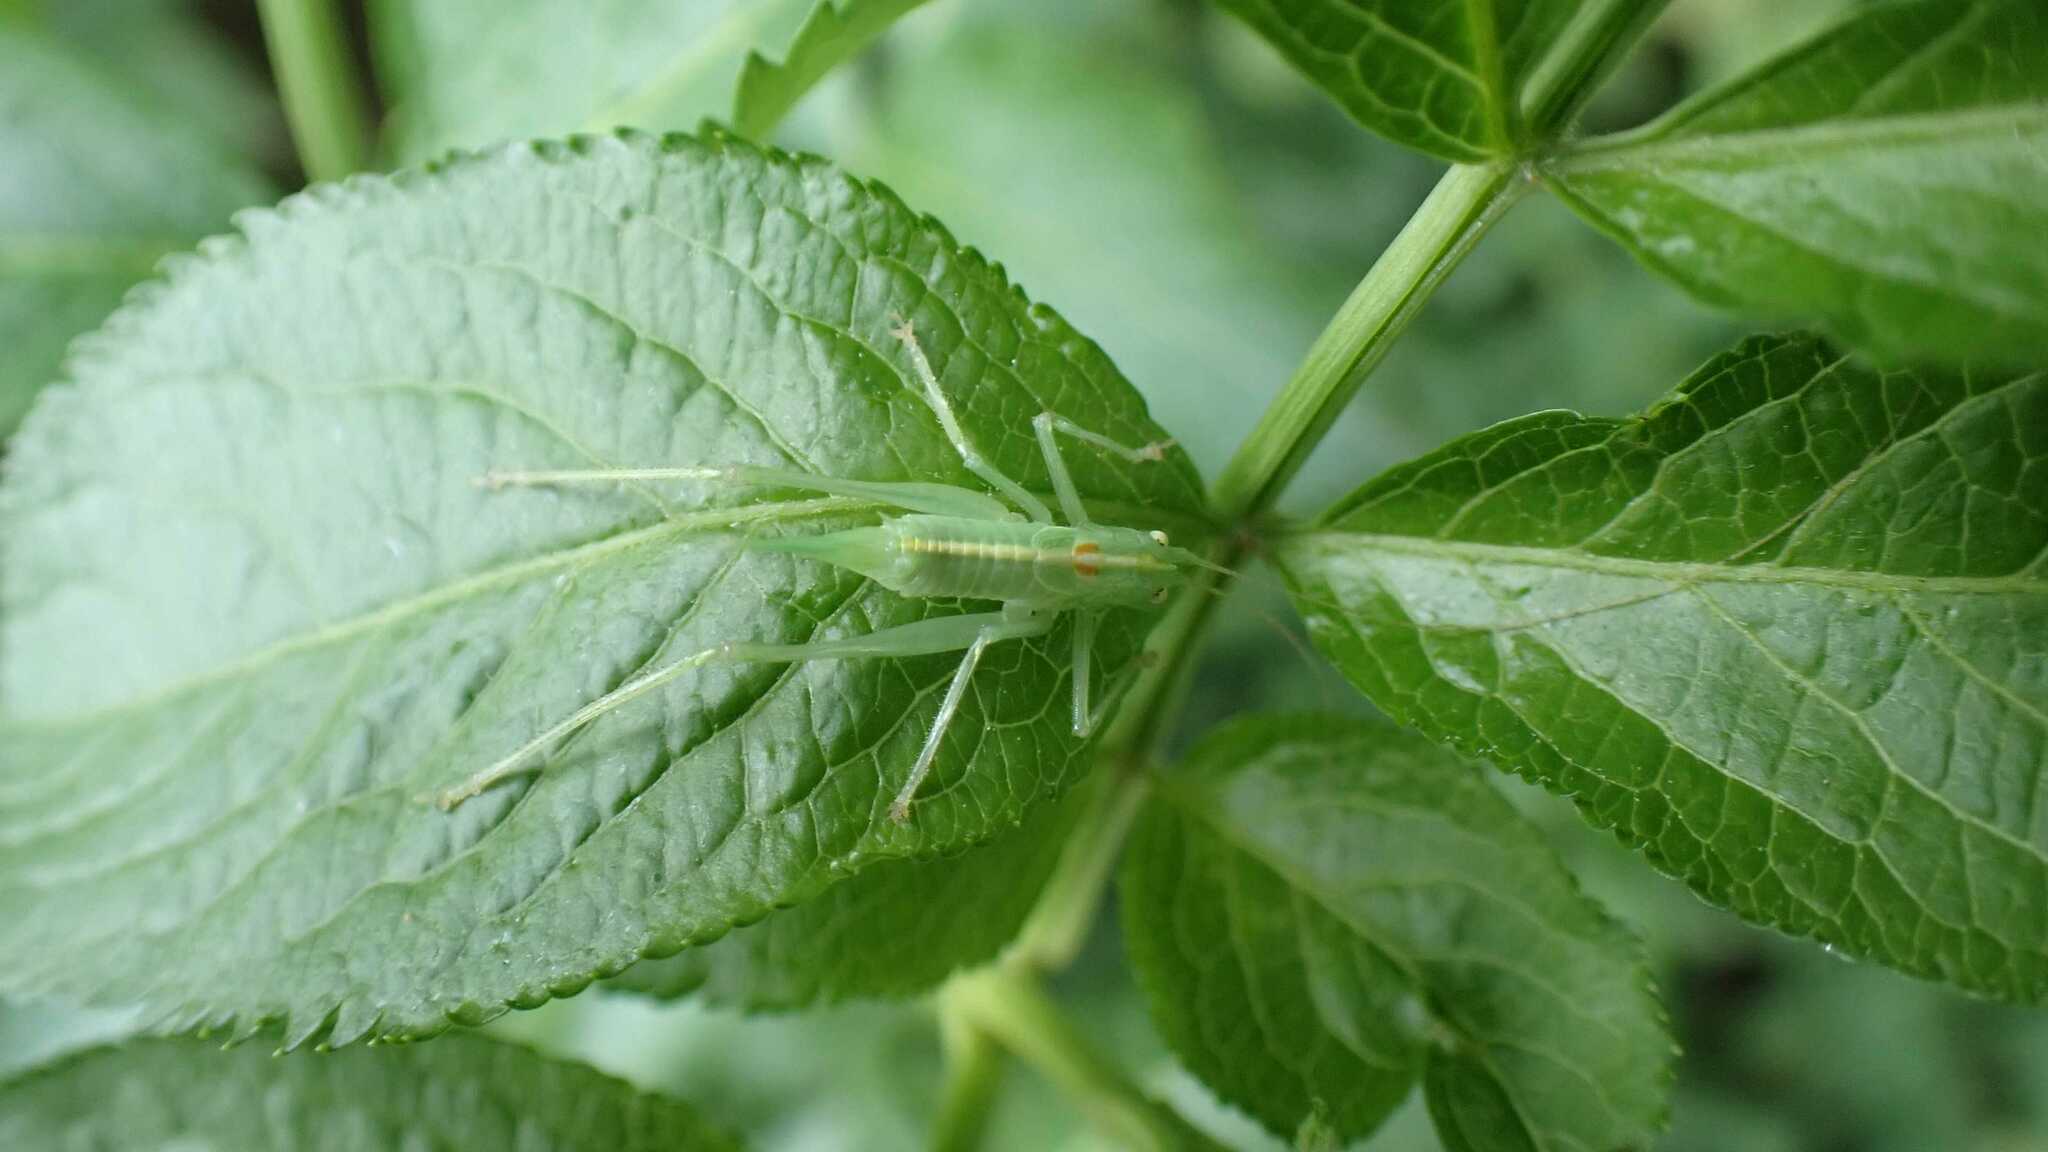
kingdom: Animalia
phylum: Arthropoda
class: Insecta
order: Orthoptera
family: Tettigoniidae
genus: Meconema
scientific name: Meconema meridionale
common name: Southern oak bush-cricket
